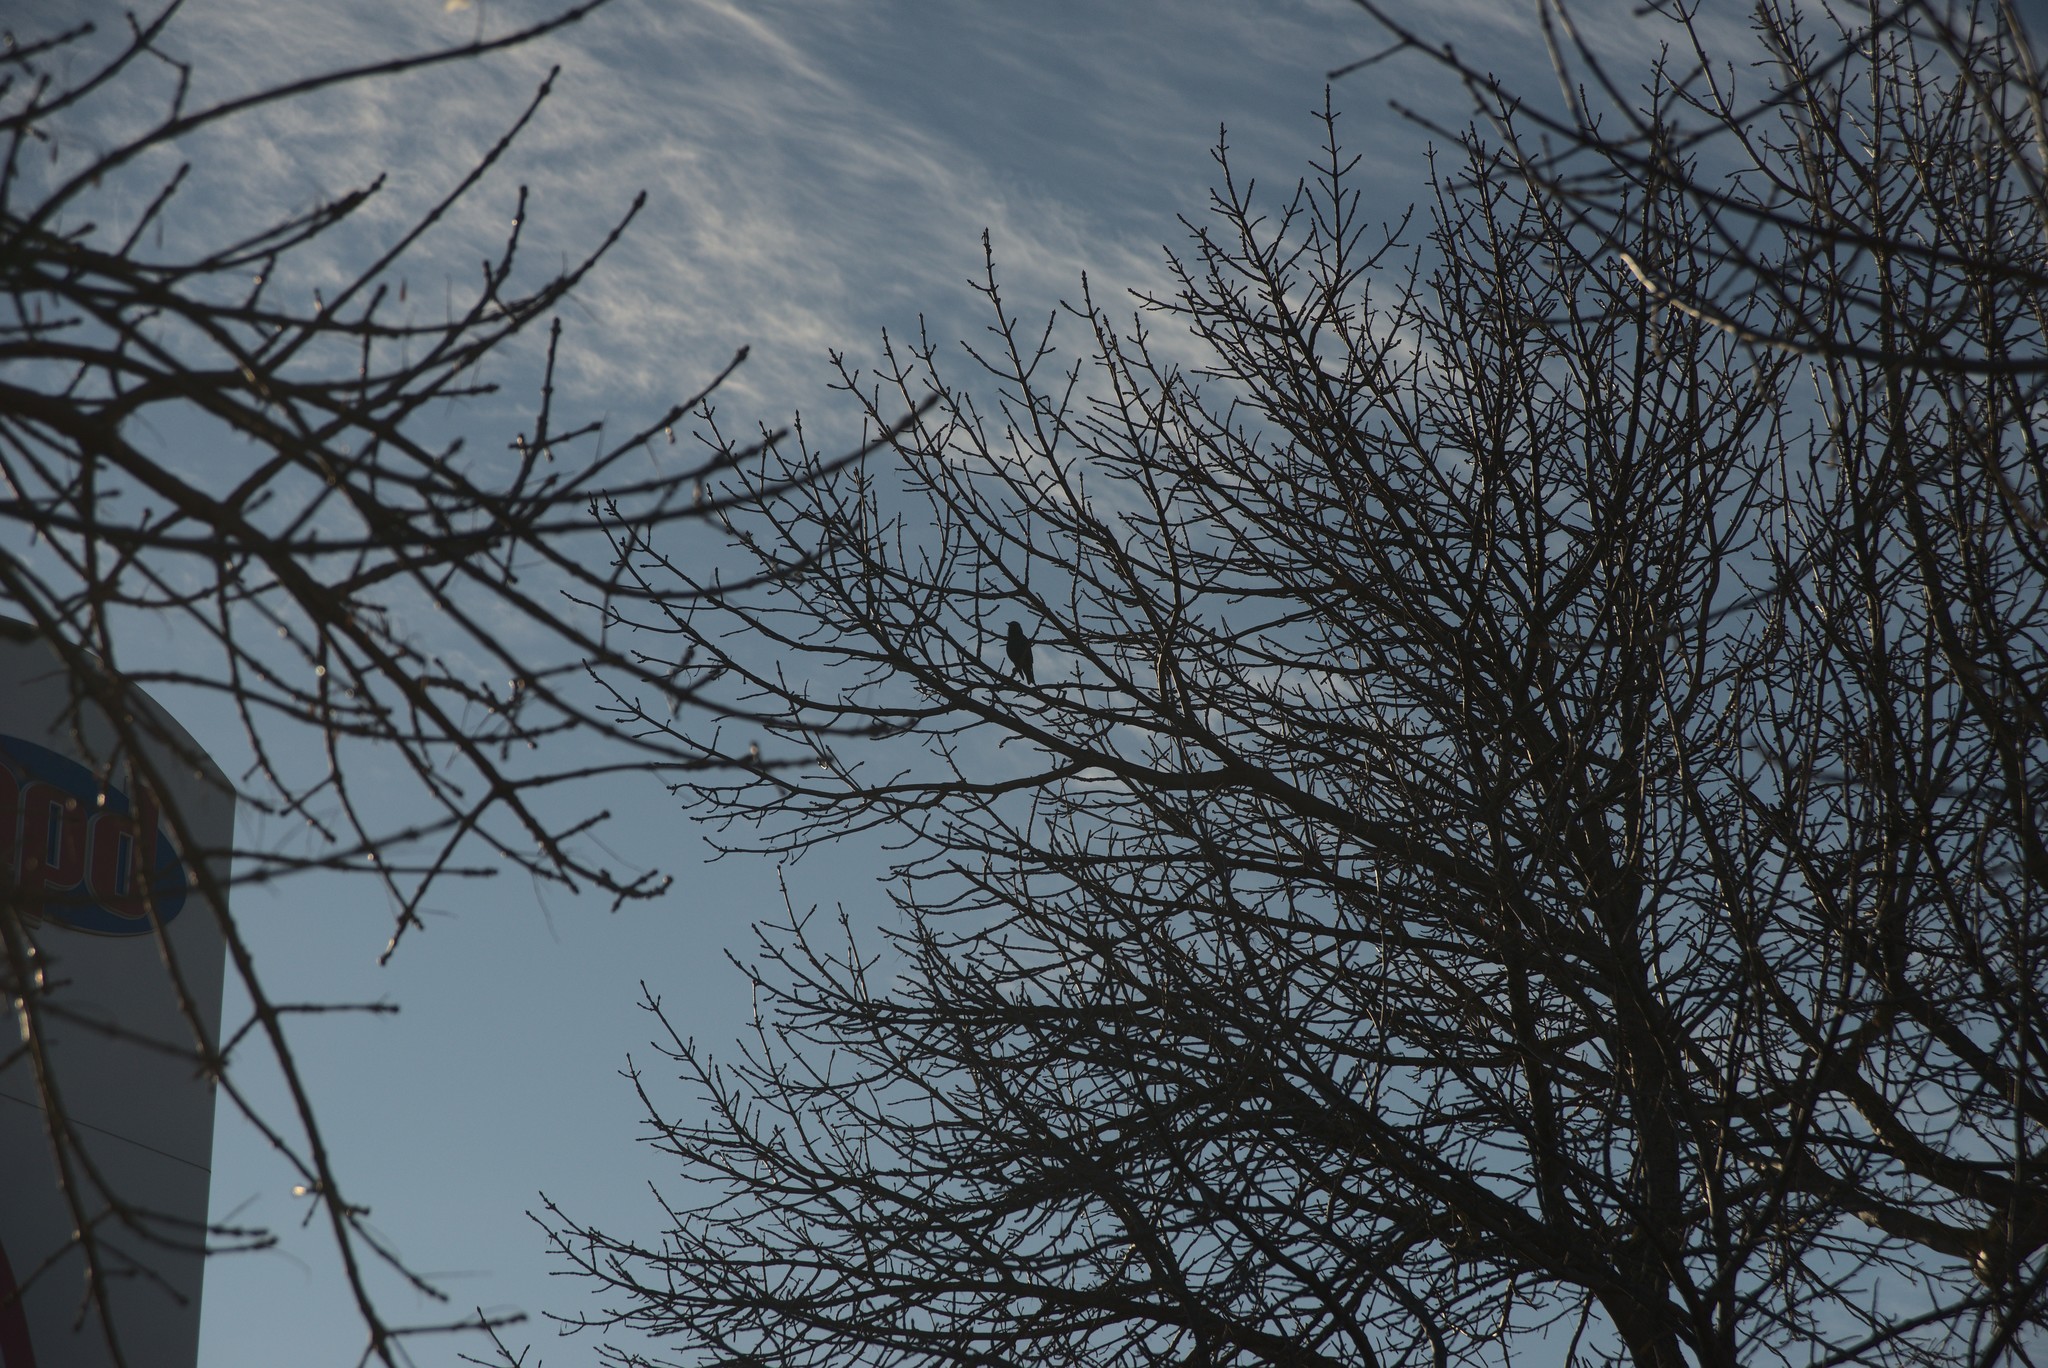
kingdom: Animalia
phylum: Chordata
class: Aves
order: Passeriformes
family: Sturnidae
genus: Sturnus
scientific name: Sturnus vulgaris
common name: Common starling
